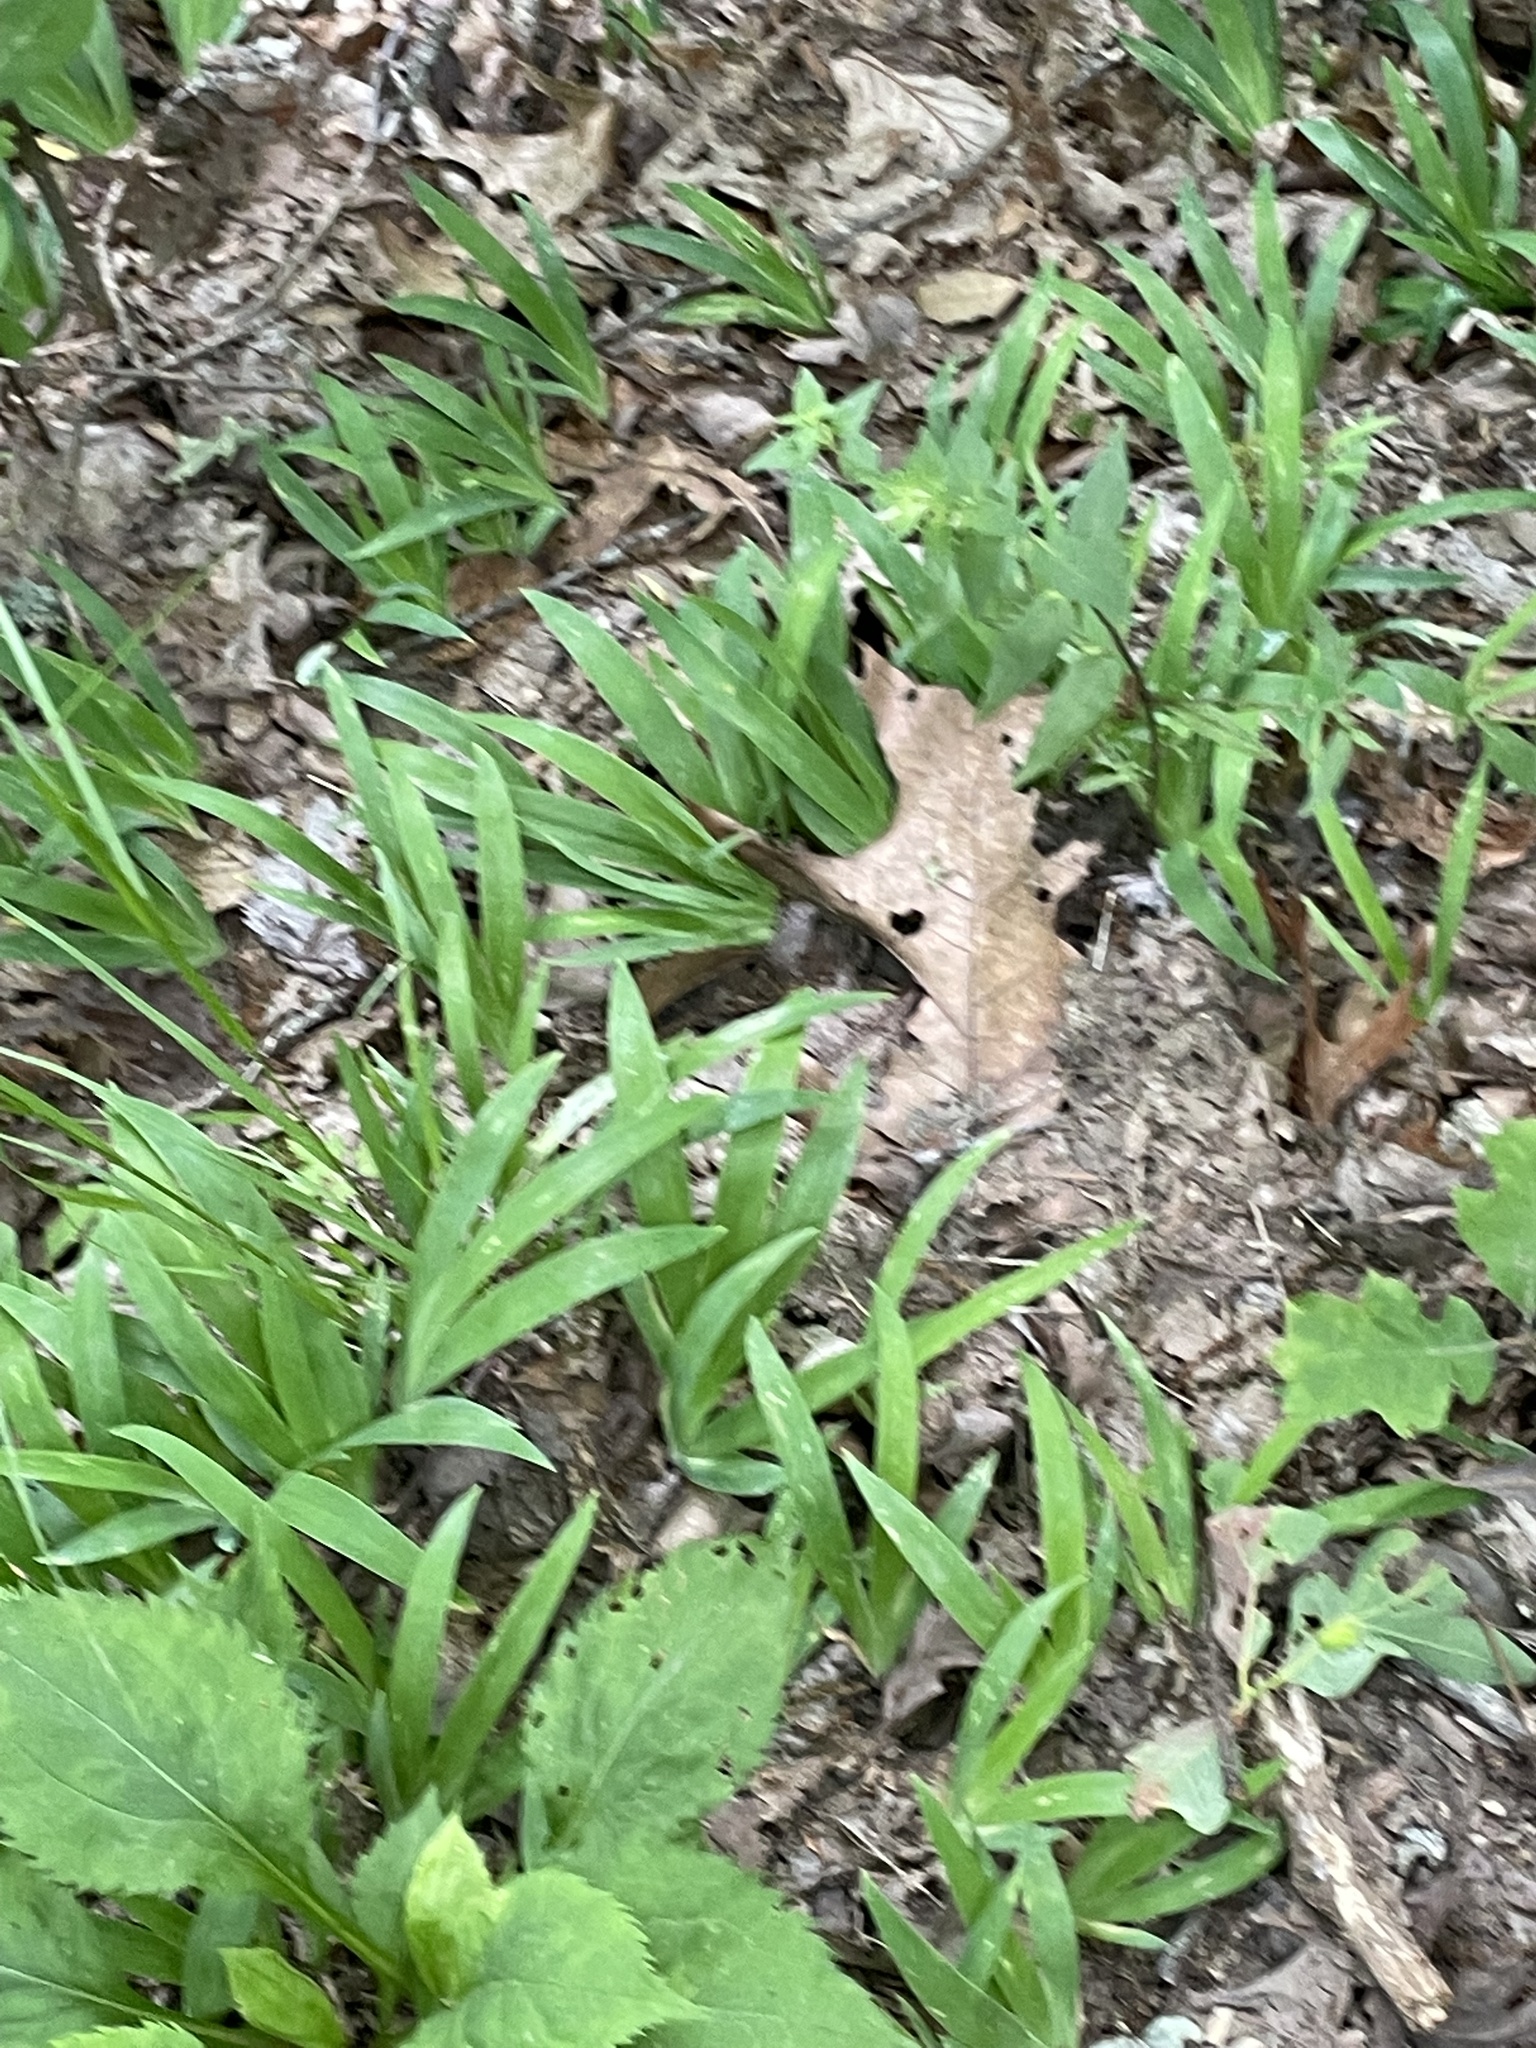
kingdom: Plantae
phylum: Tracheophyta
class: Liliopsida
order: Asparagales
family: Iridaceae
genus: Iris
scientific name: Iris cristata
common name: Crested iris
